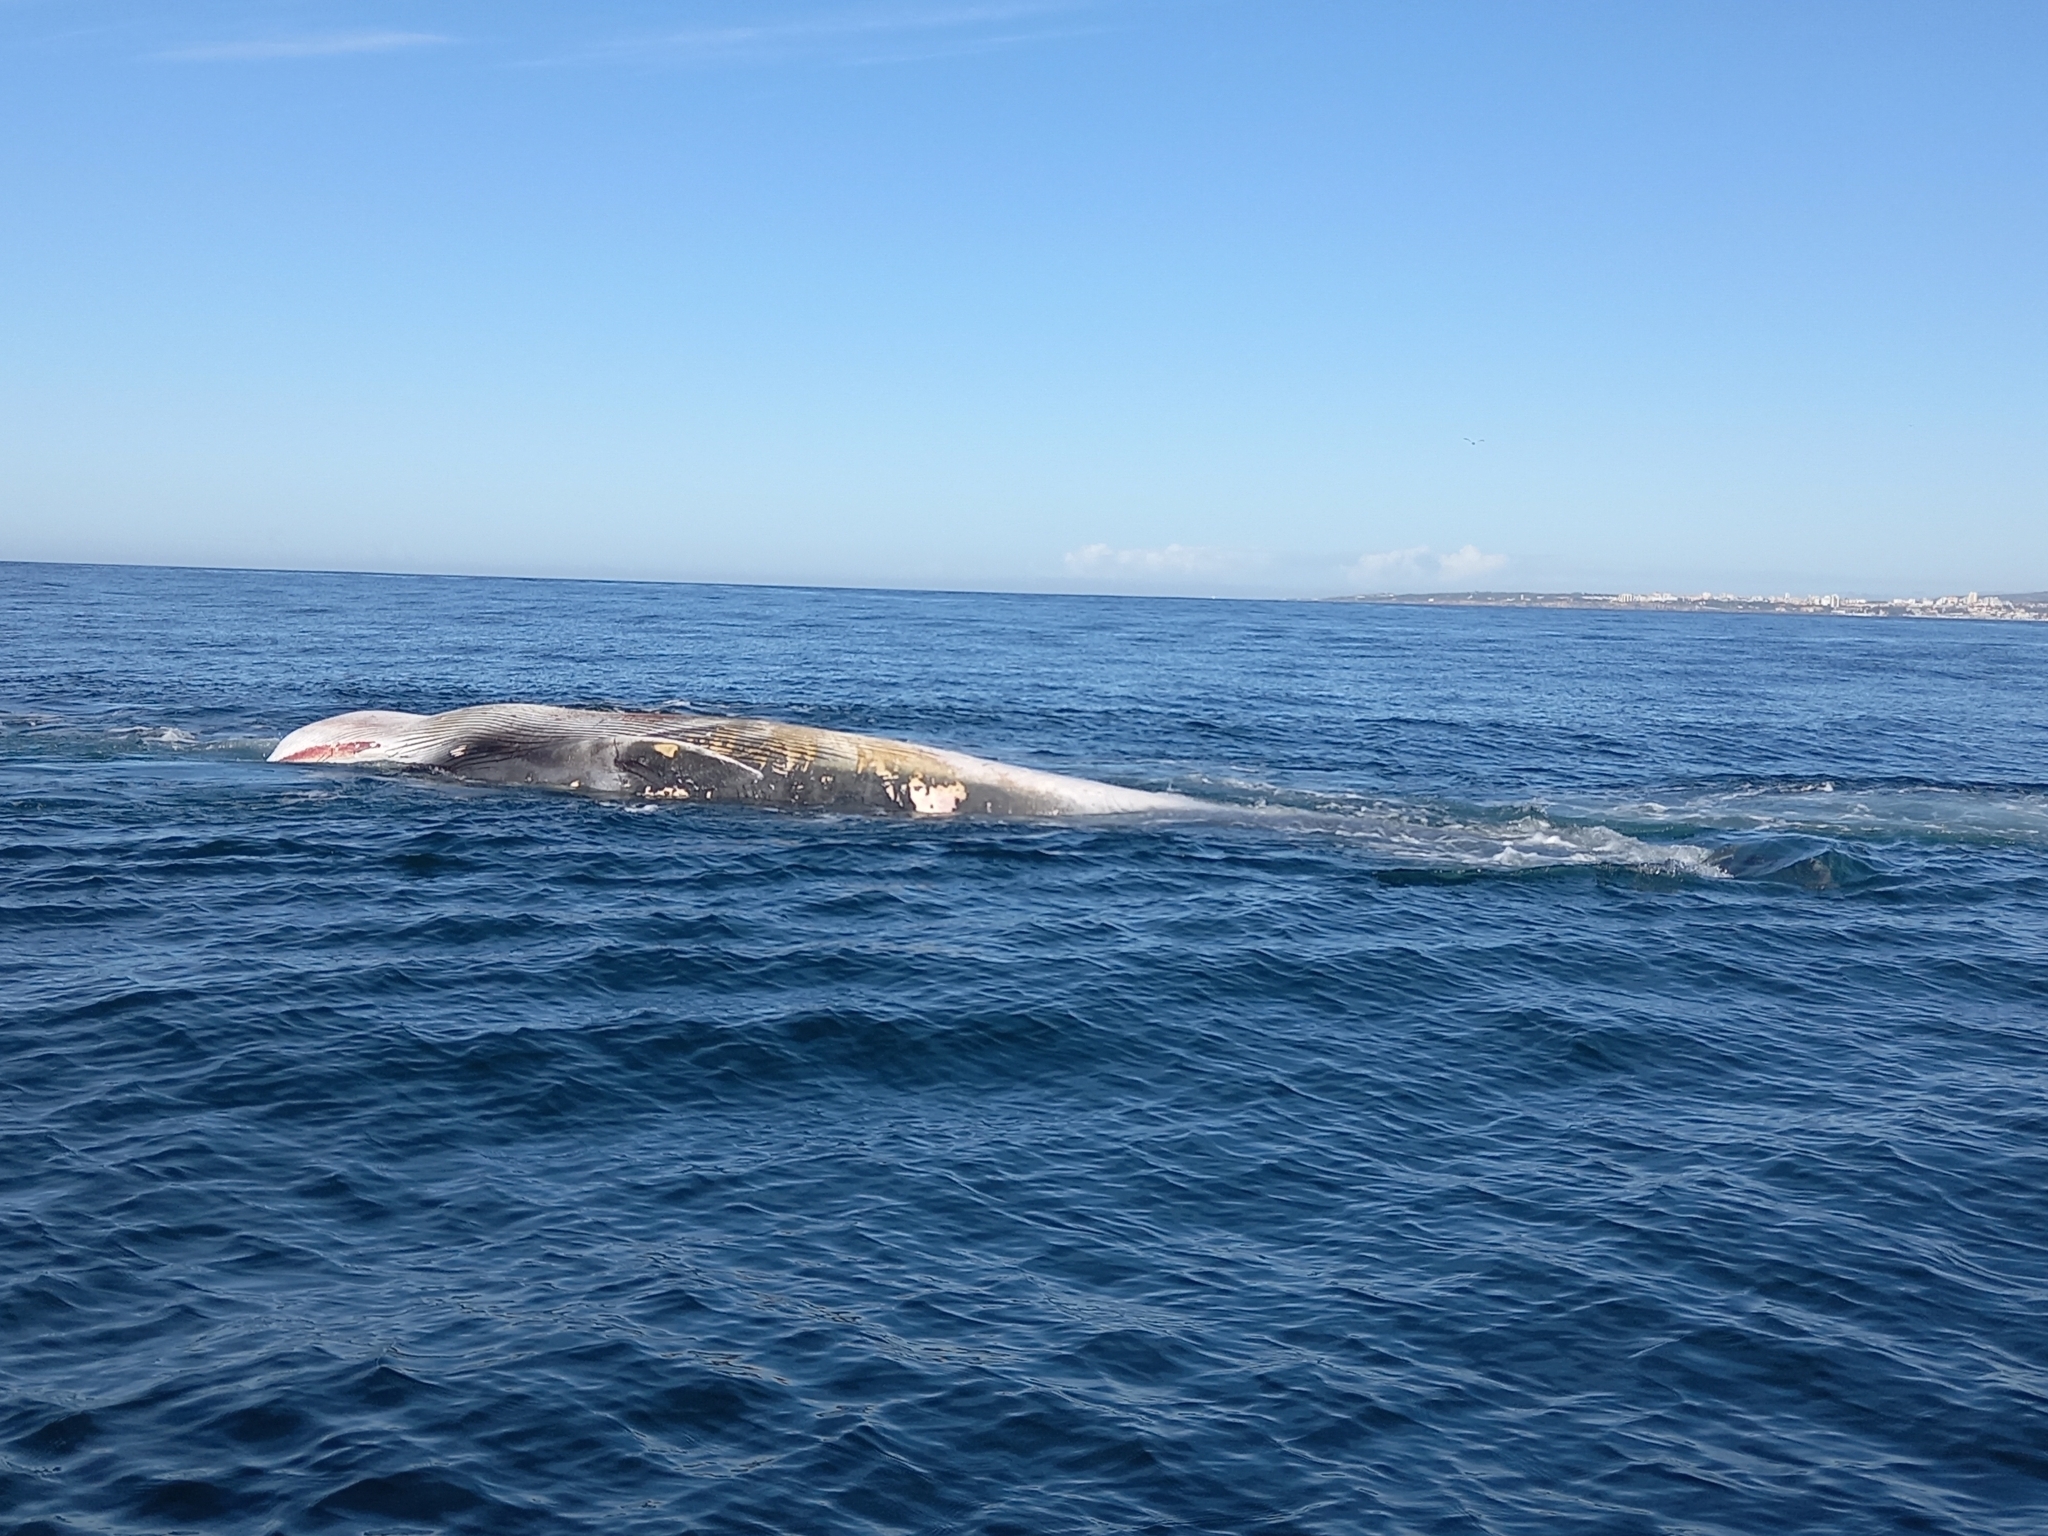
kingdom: Animalia
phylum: Chordata
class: Mammalia
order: Cetacea
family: Balaenopteridae
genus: Balaenoptera
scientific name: Balaenoptera physalus
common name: Fin whale
